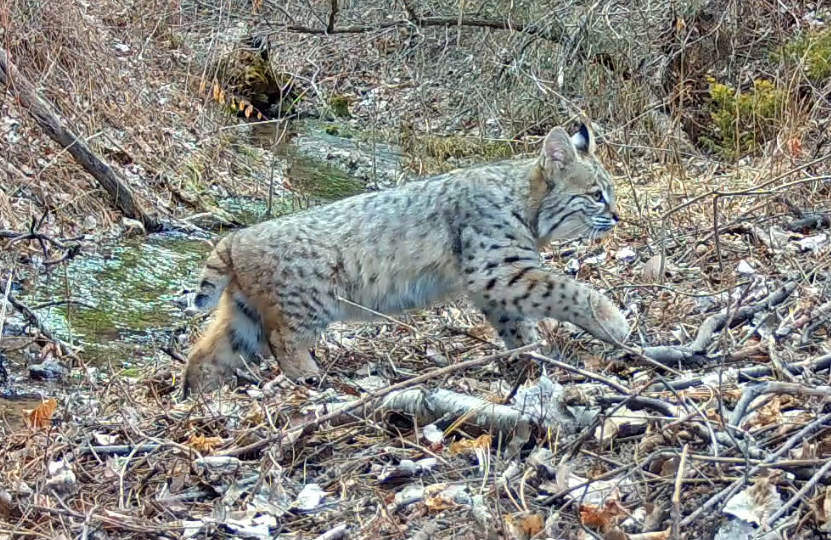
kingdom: Animalia
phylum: Chordata
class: Mammalia
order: Carnivora
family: Felidae
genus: Lynx
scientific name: Lynx rufus
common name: Bobcat
